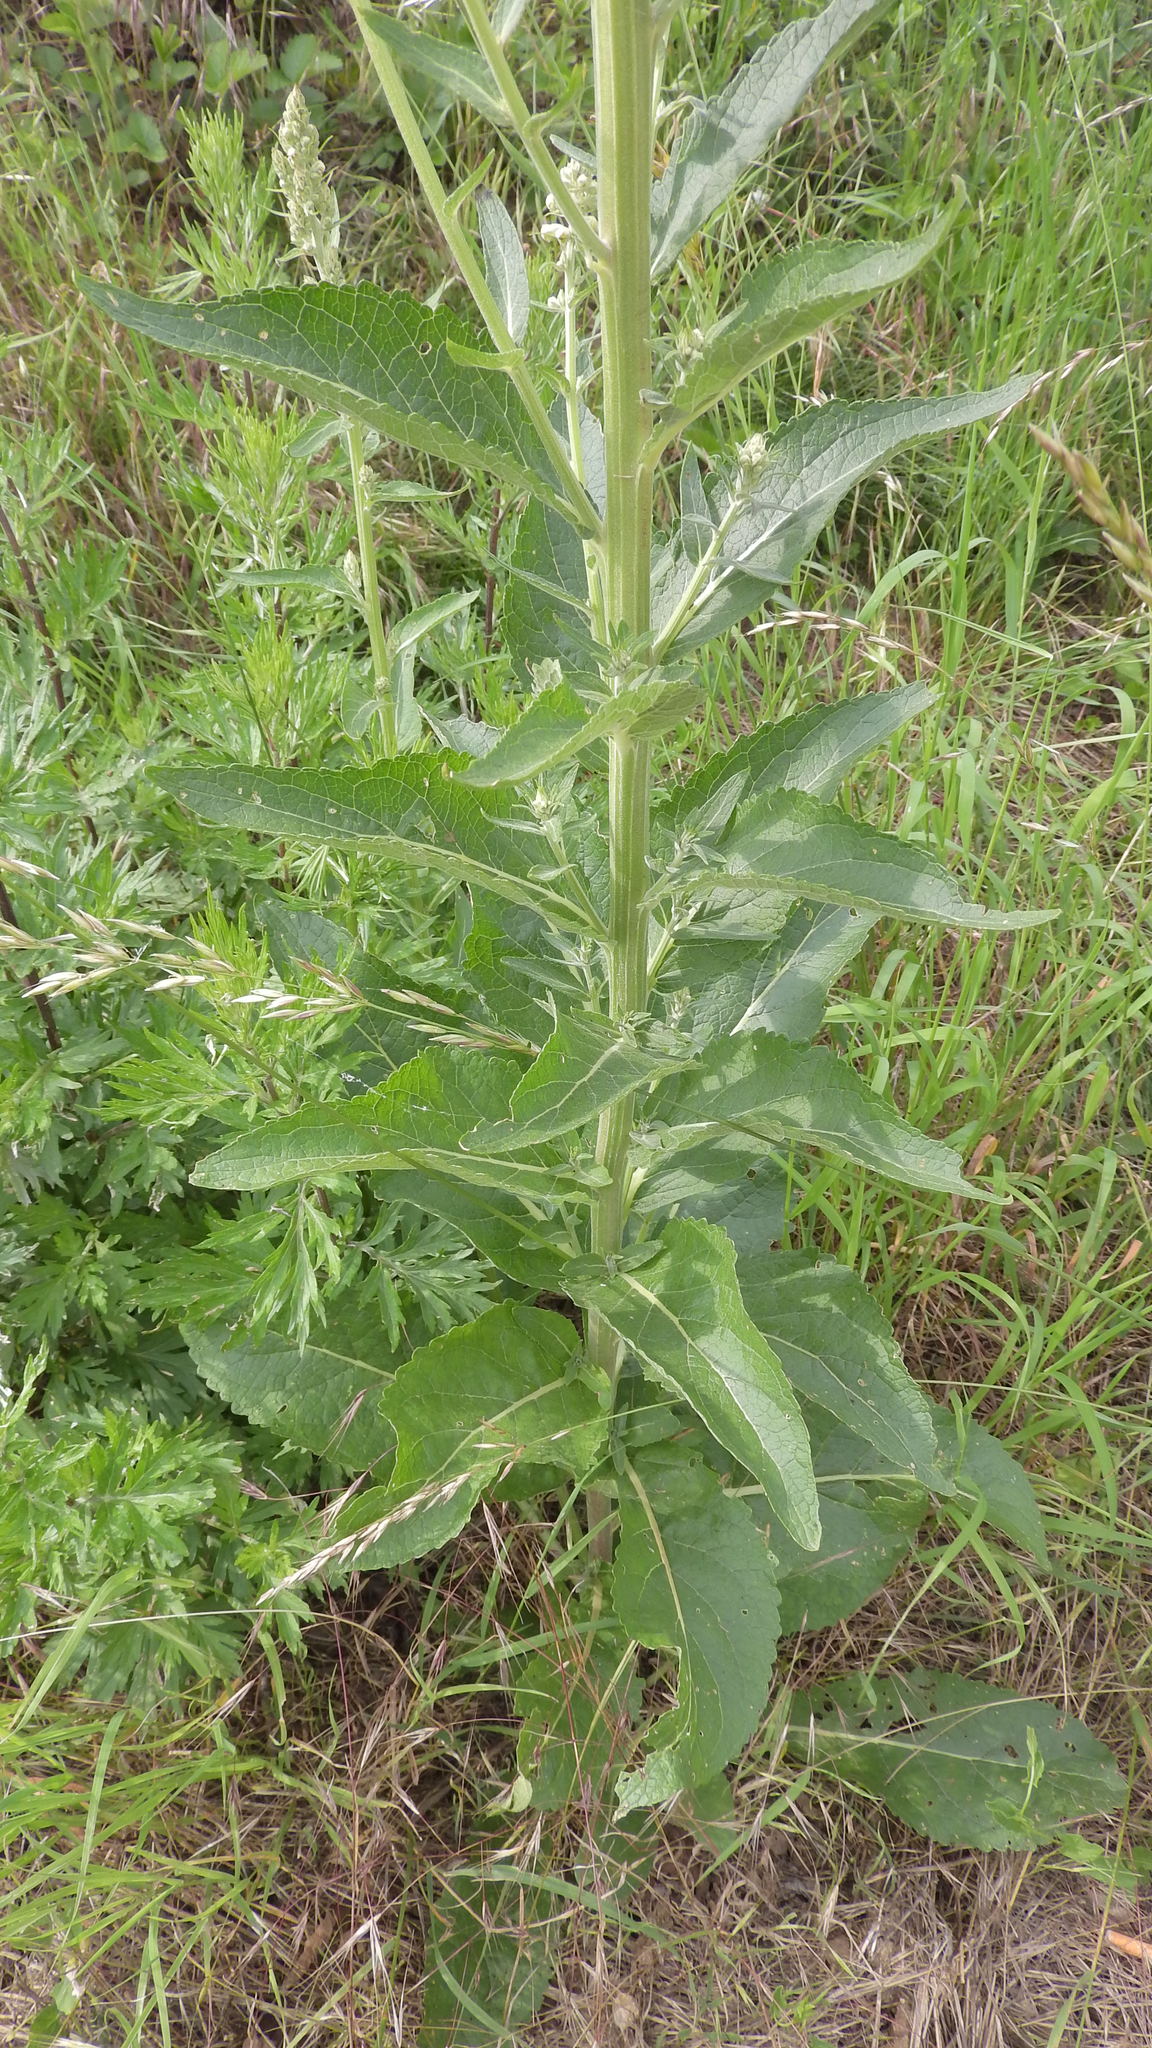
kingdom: Plantae
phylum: Tracheophyta
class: Magnoliopsida
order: Lamiales
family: Scrophulariaceae
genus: Verbascum
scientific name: Verbascum lychnitis
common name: White mullein
